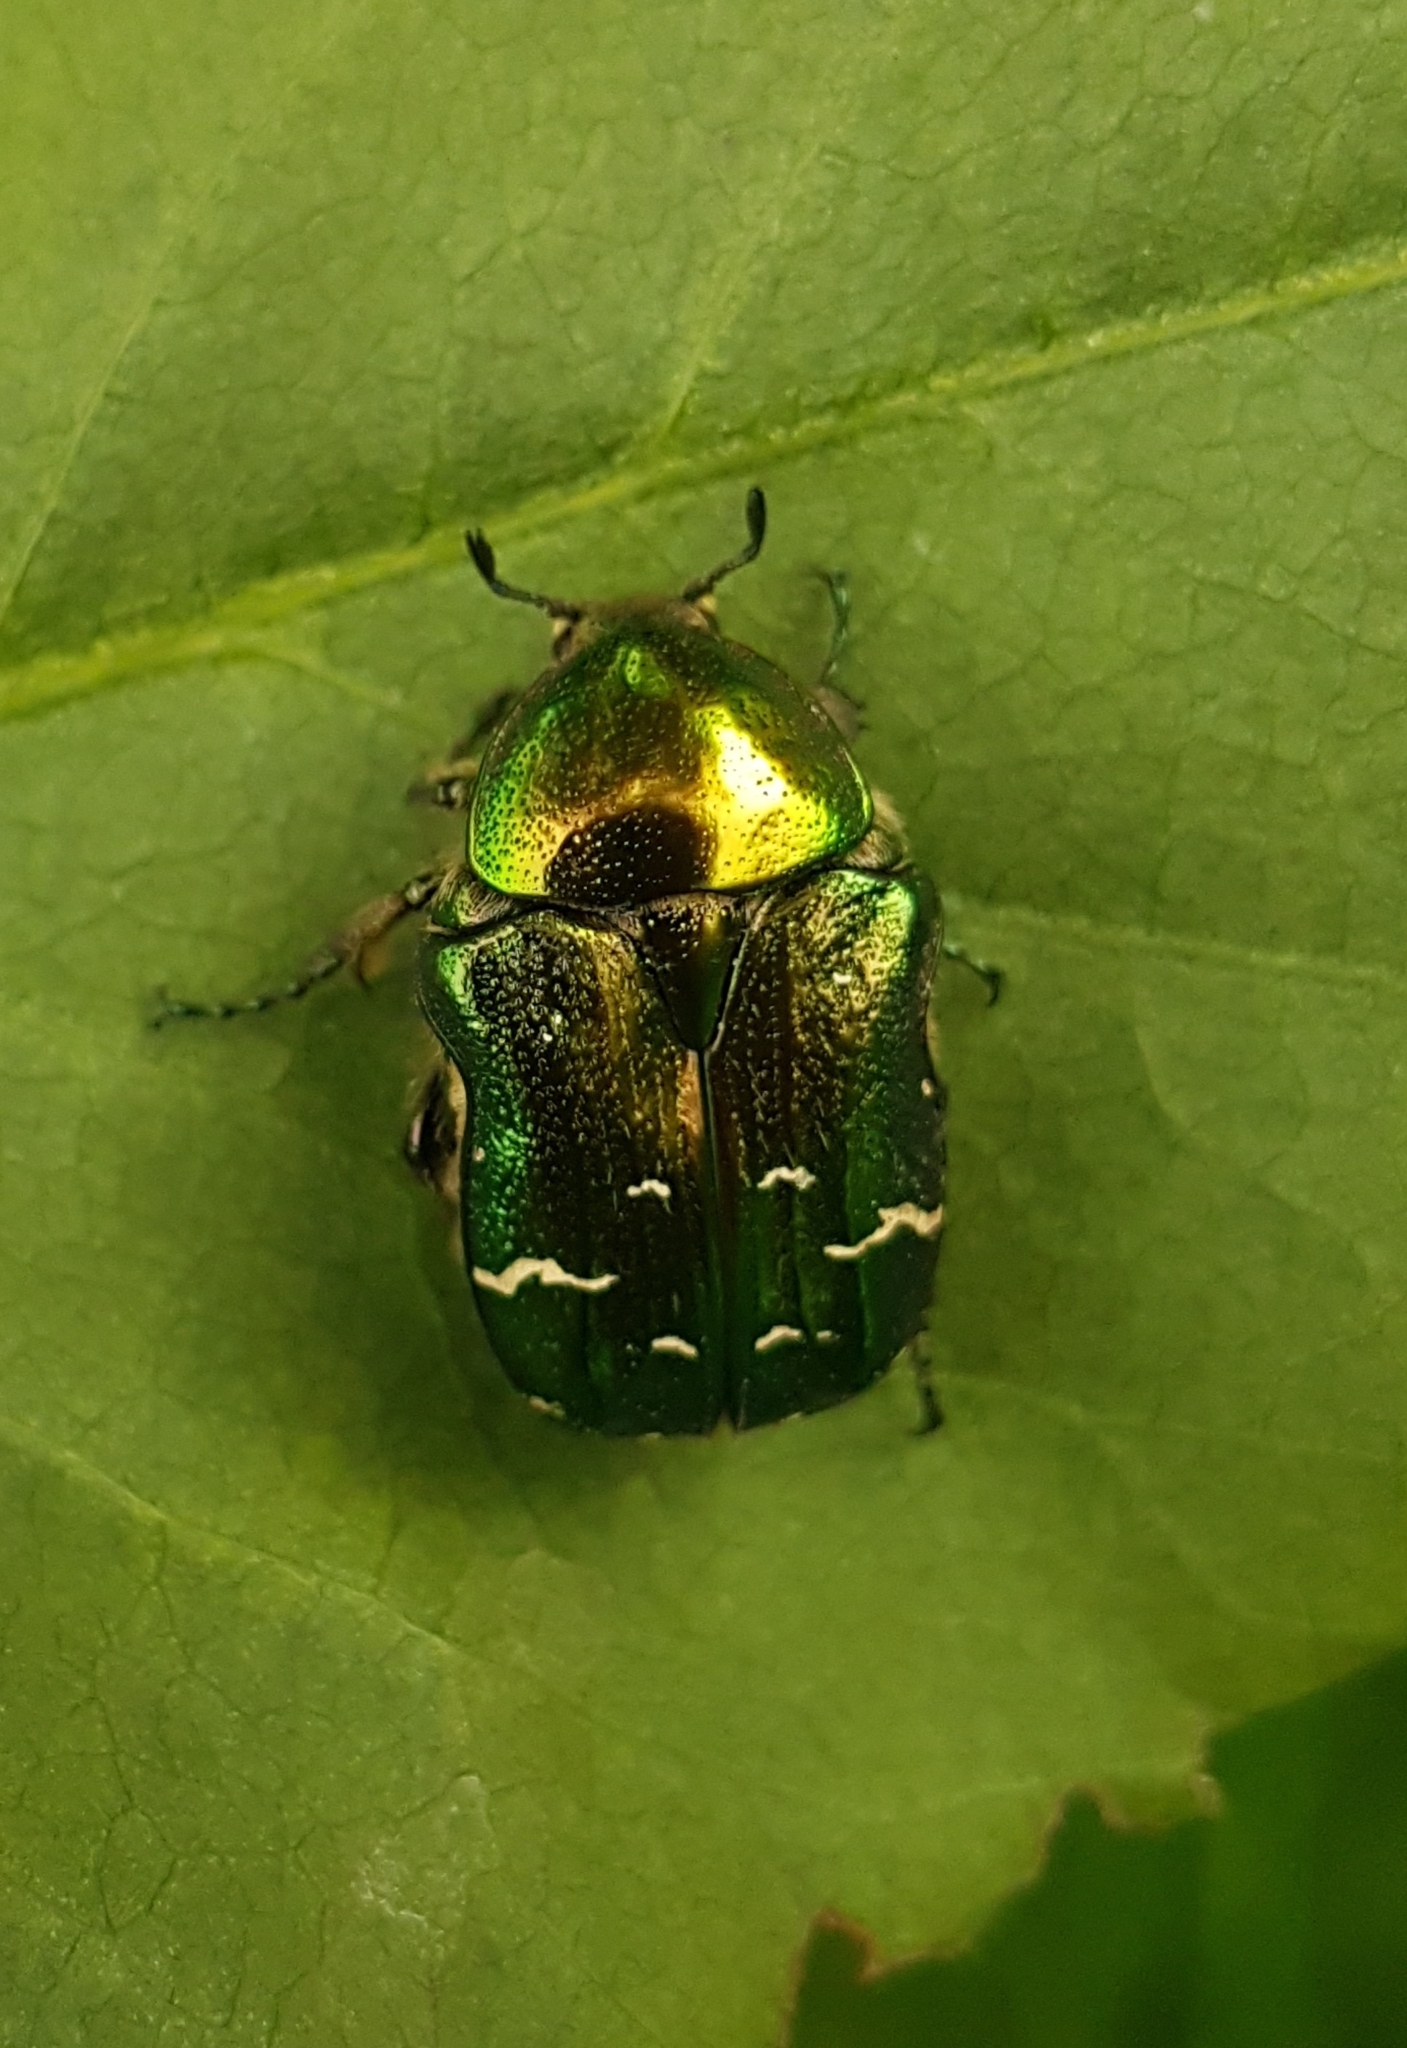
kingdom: Animalia
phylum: Arthropoda
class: Insecta
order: Coleoptera
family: Scarabaeidae
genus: Cetonia
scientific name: Cetonia aurata
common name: Rose chafer
